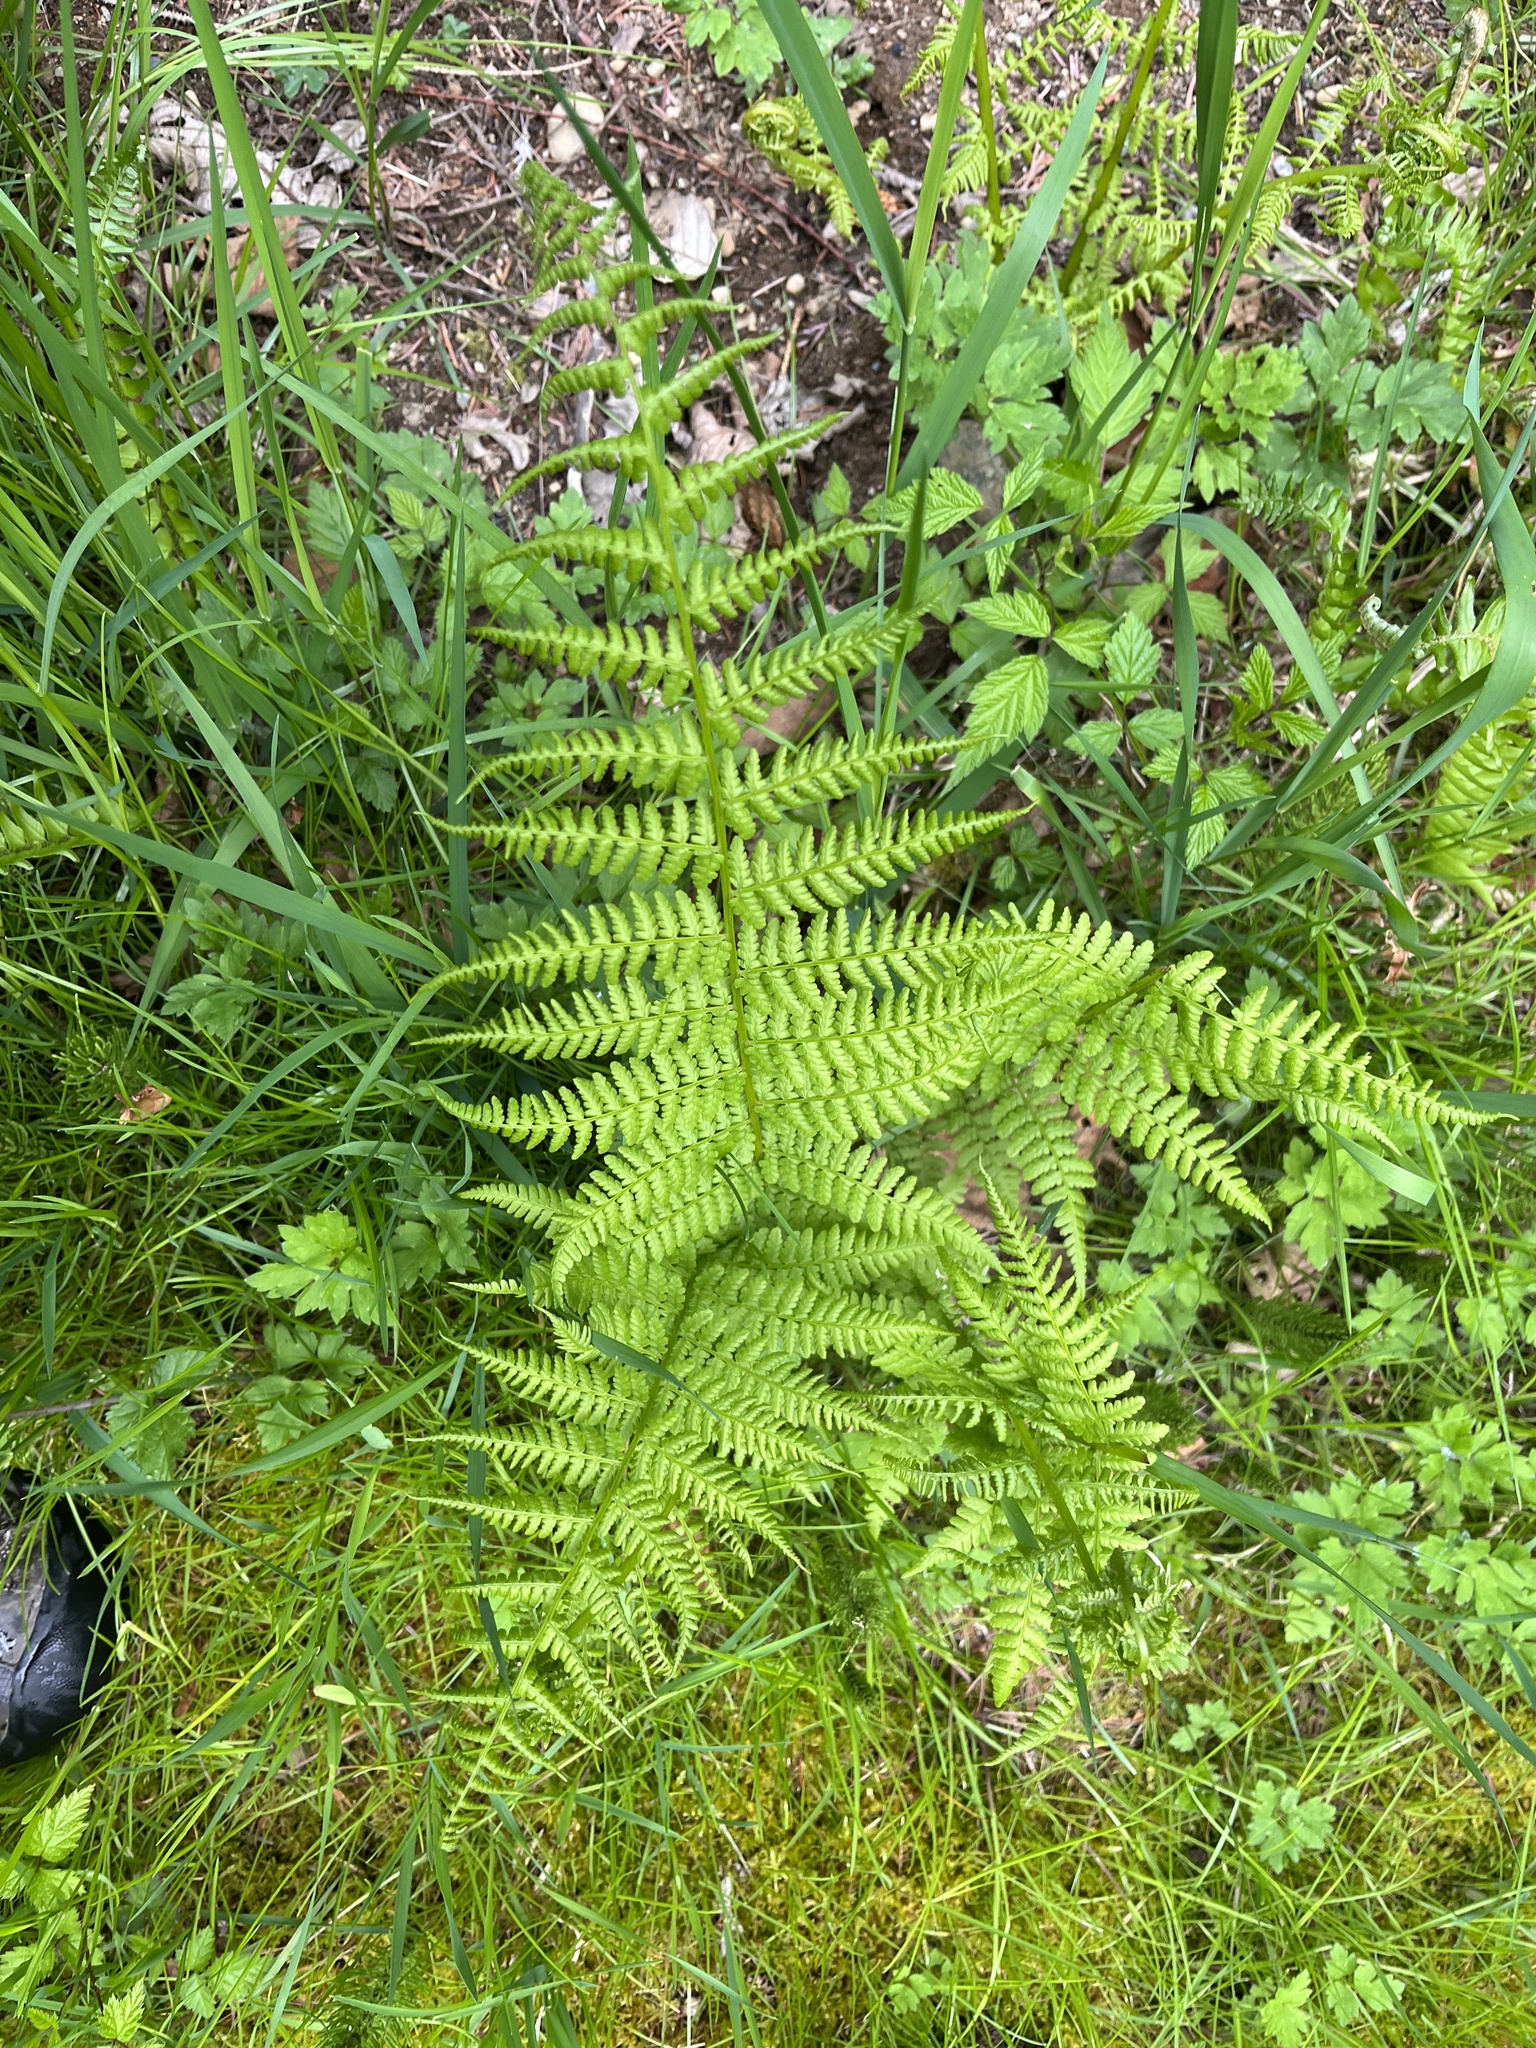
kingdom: Plantae
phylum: Tracheophyta
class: Polypodiopsida
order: Polypodiales
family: Athyriaceae
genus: Athyrium
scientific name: Athyrium cyclosorum
